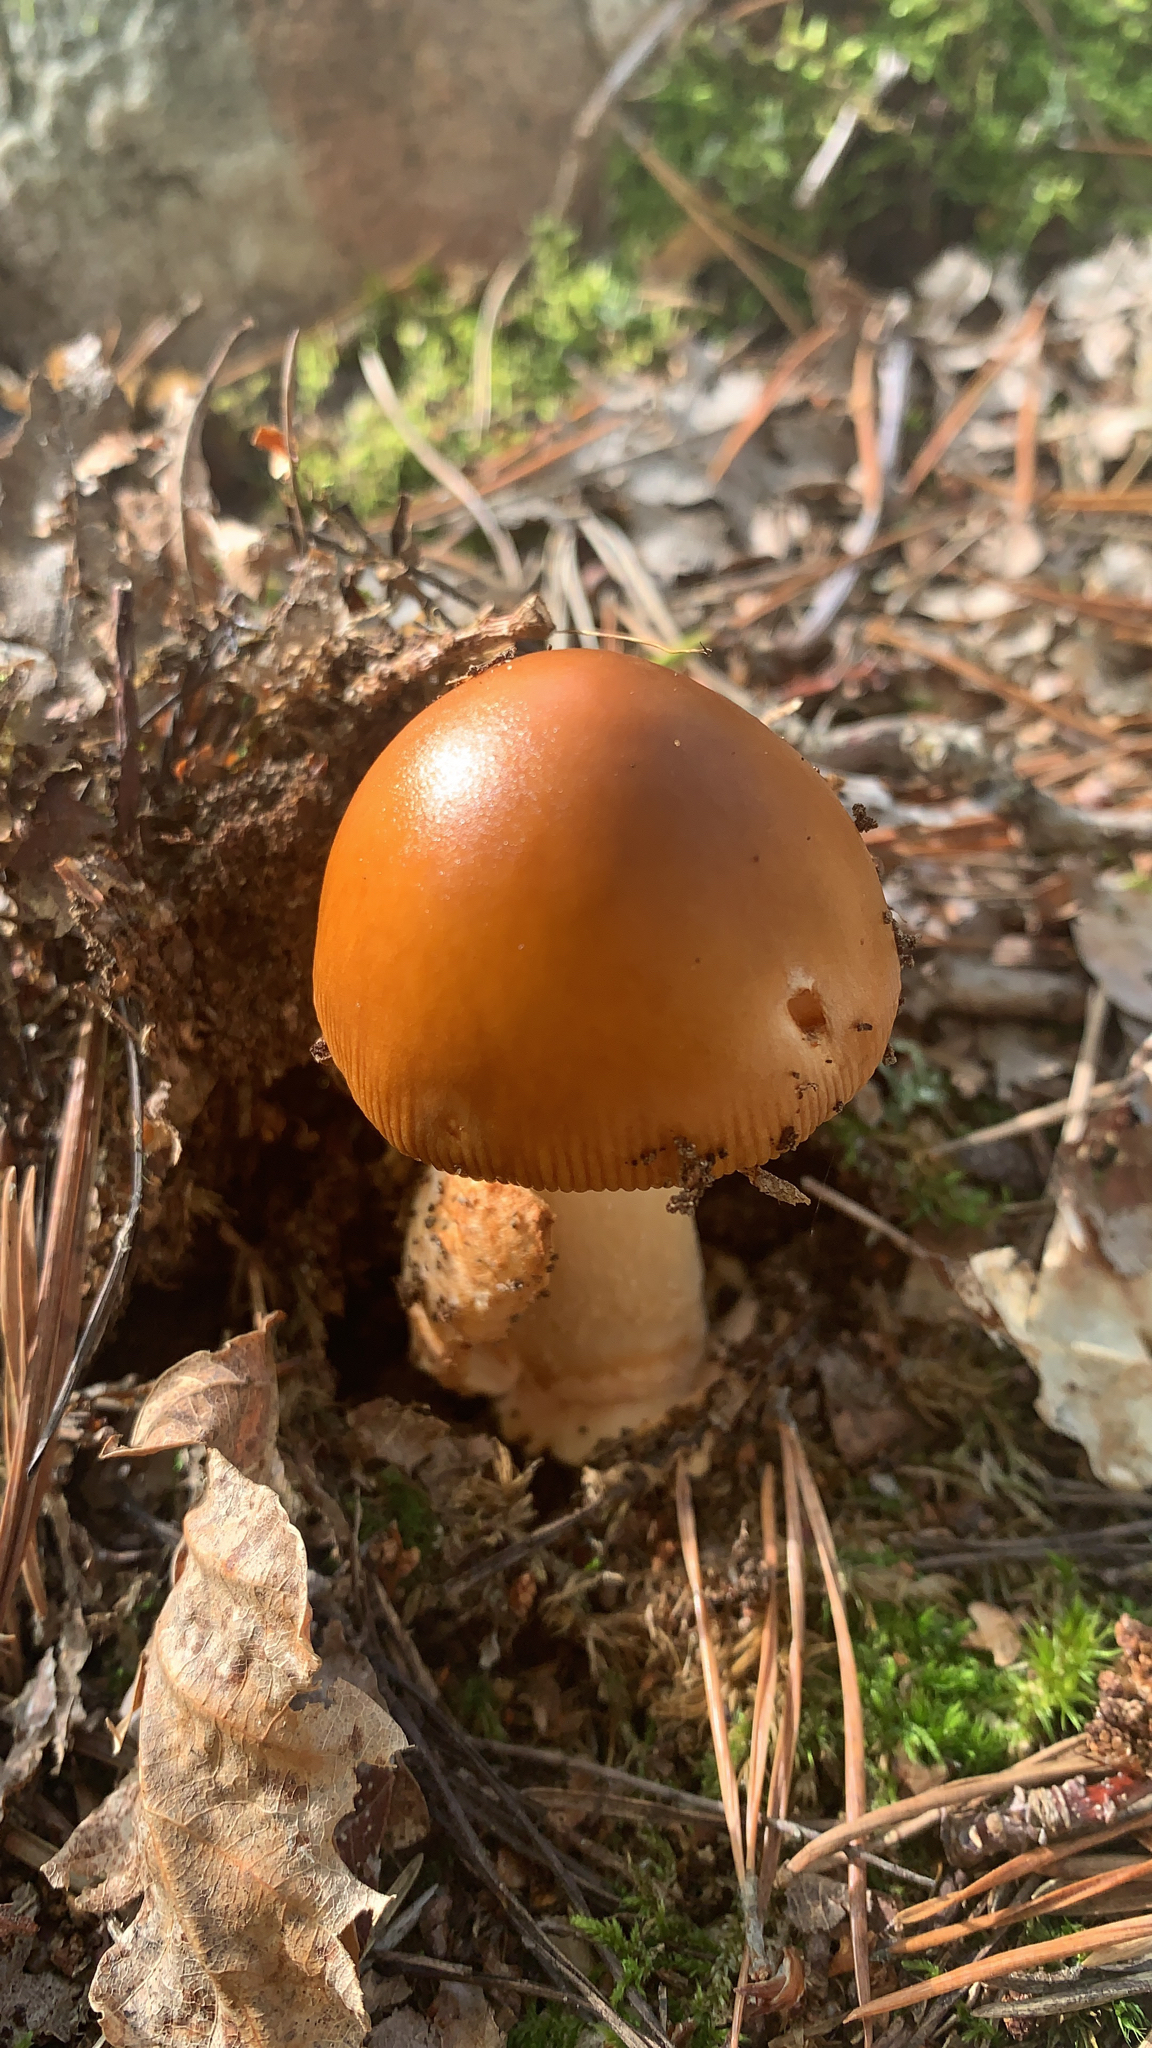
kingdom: Fungi
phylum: Basidiomycota
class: Agaricomycetes
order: Agaricales
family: Amanitaceae
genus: Amanita
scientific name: Amanita fulva
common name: Tawny grisette
